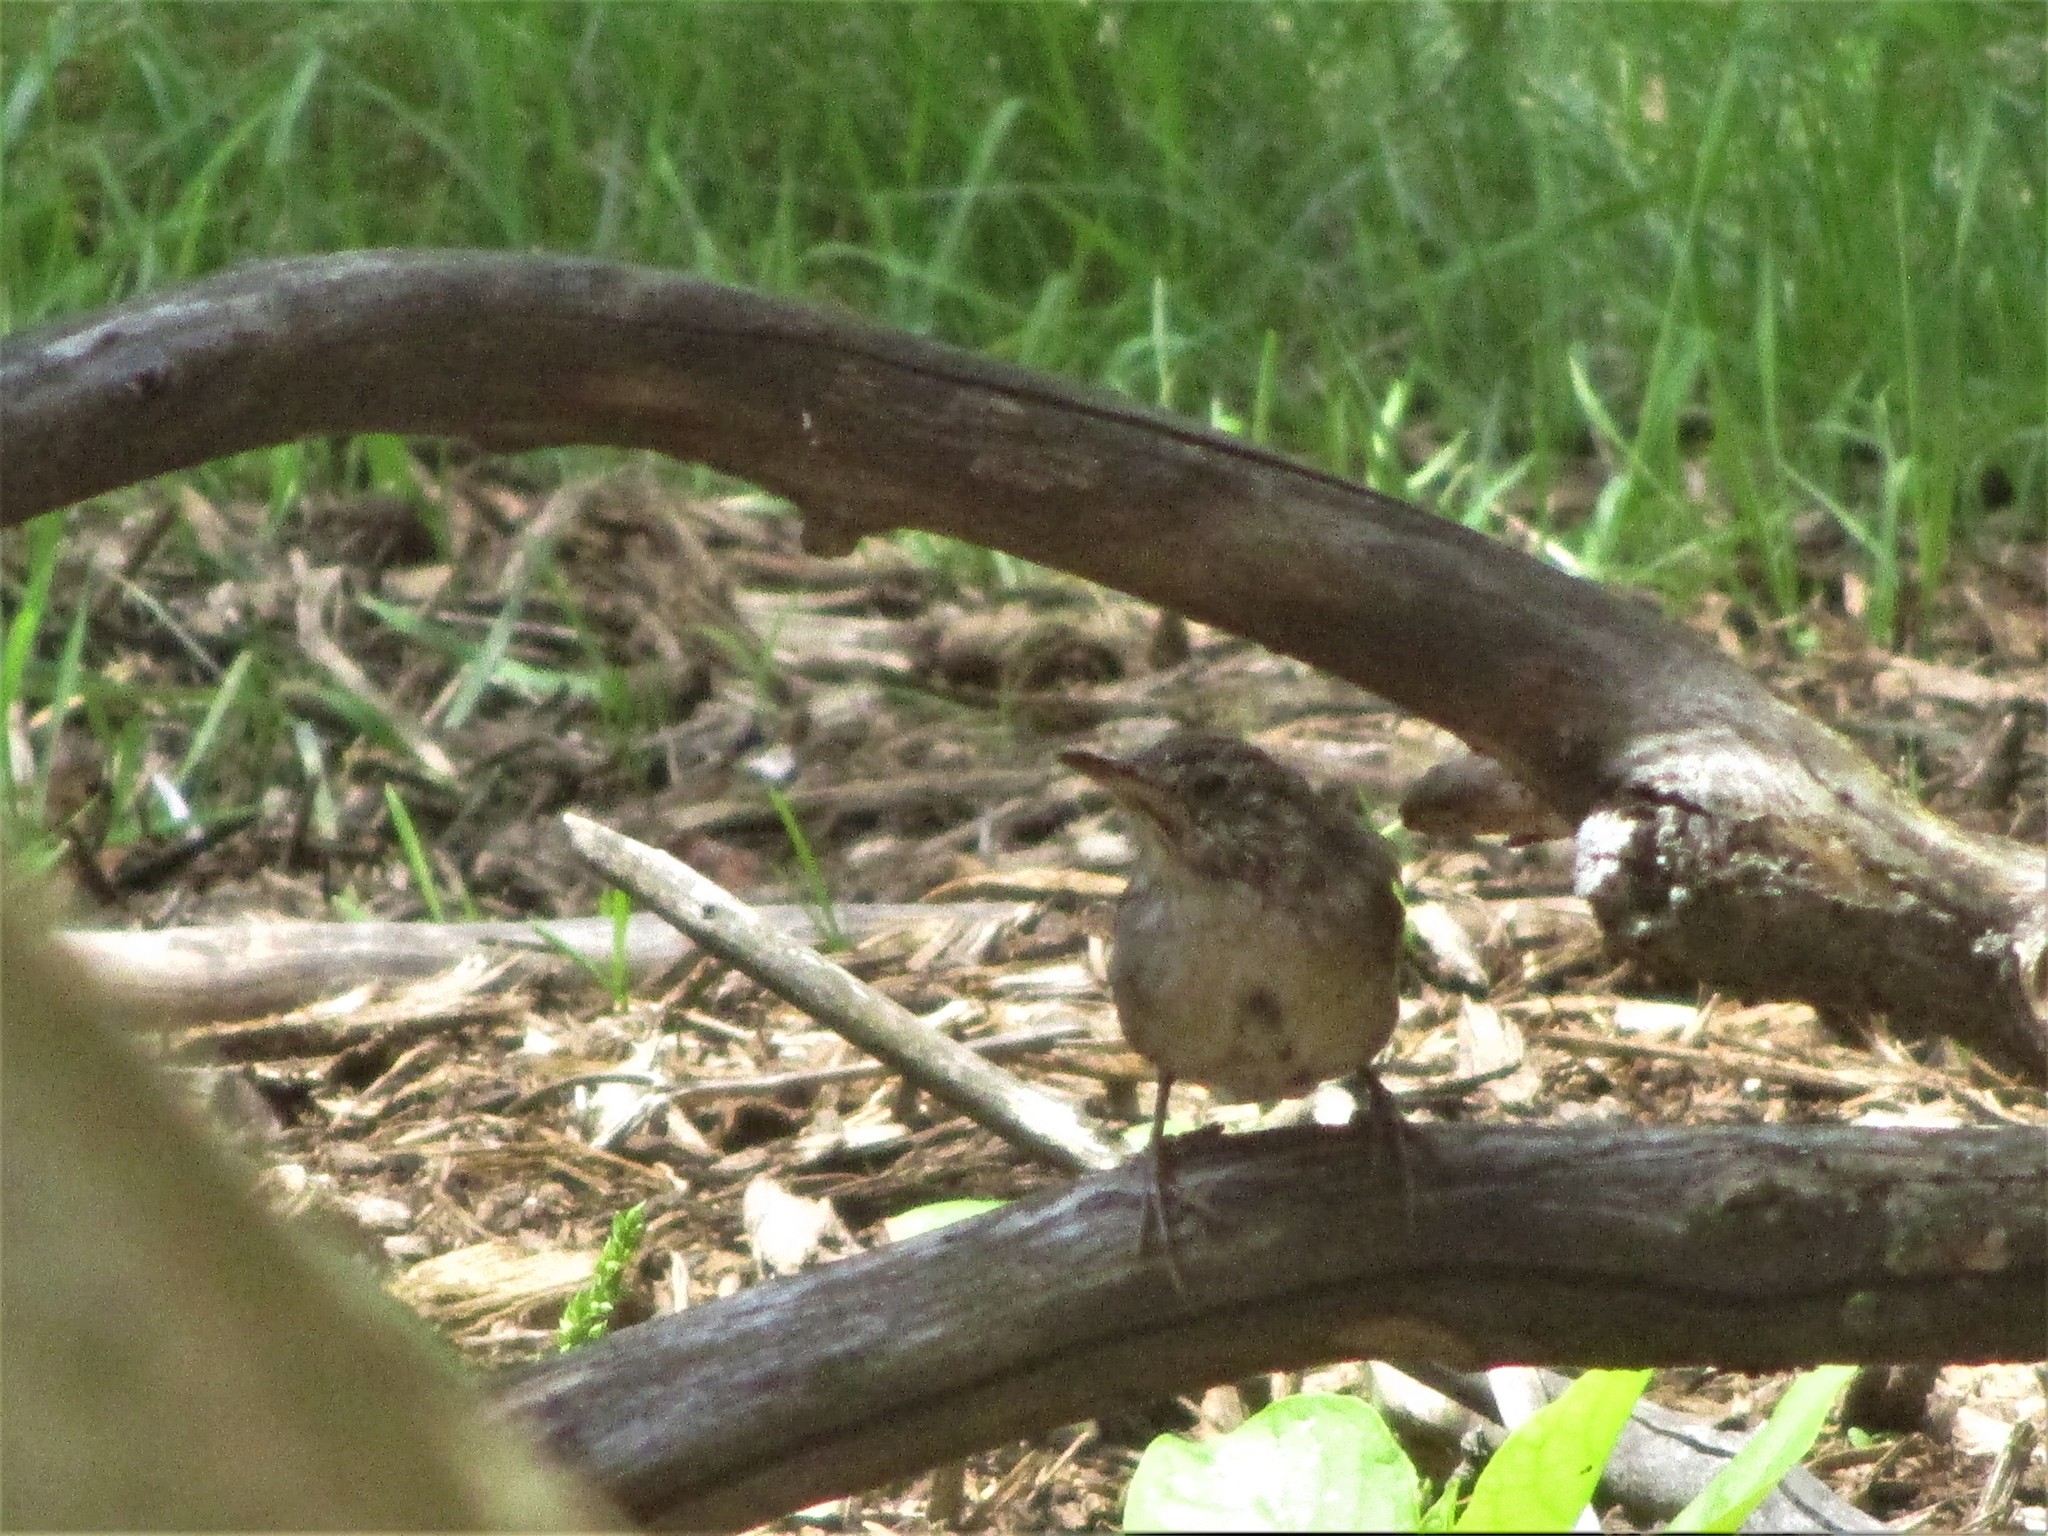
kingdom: Animalia
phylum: Chordata
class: Aves
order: Passeriformes
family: Troglodytidae
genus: Troglodytes
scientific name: Troglodytes aedon
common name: House wren
